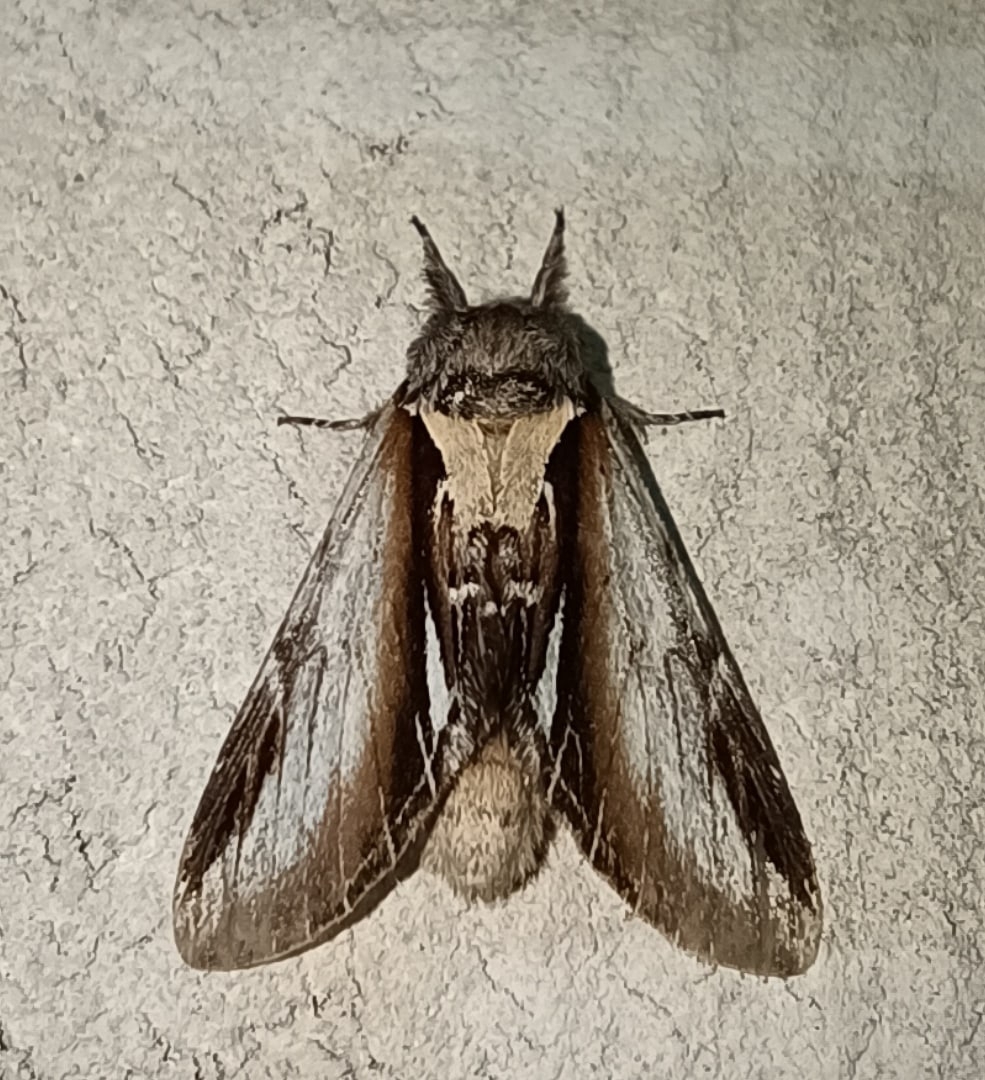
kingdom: Animalia
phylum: Arthropoda
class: Insecta
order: Lepidoptera
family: Notodontidae
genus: Pheosia
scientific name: Pheosia gnoma
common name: Lesser swallow prominent
